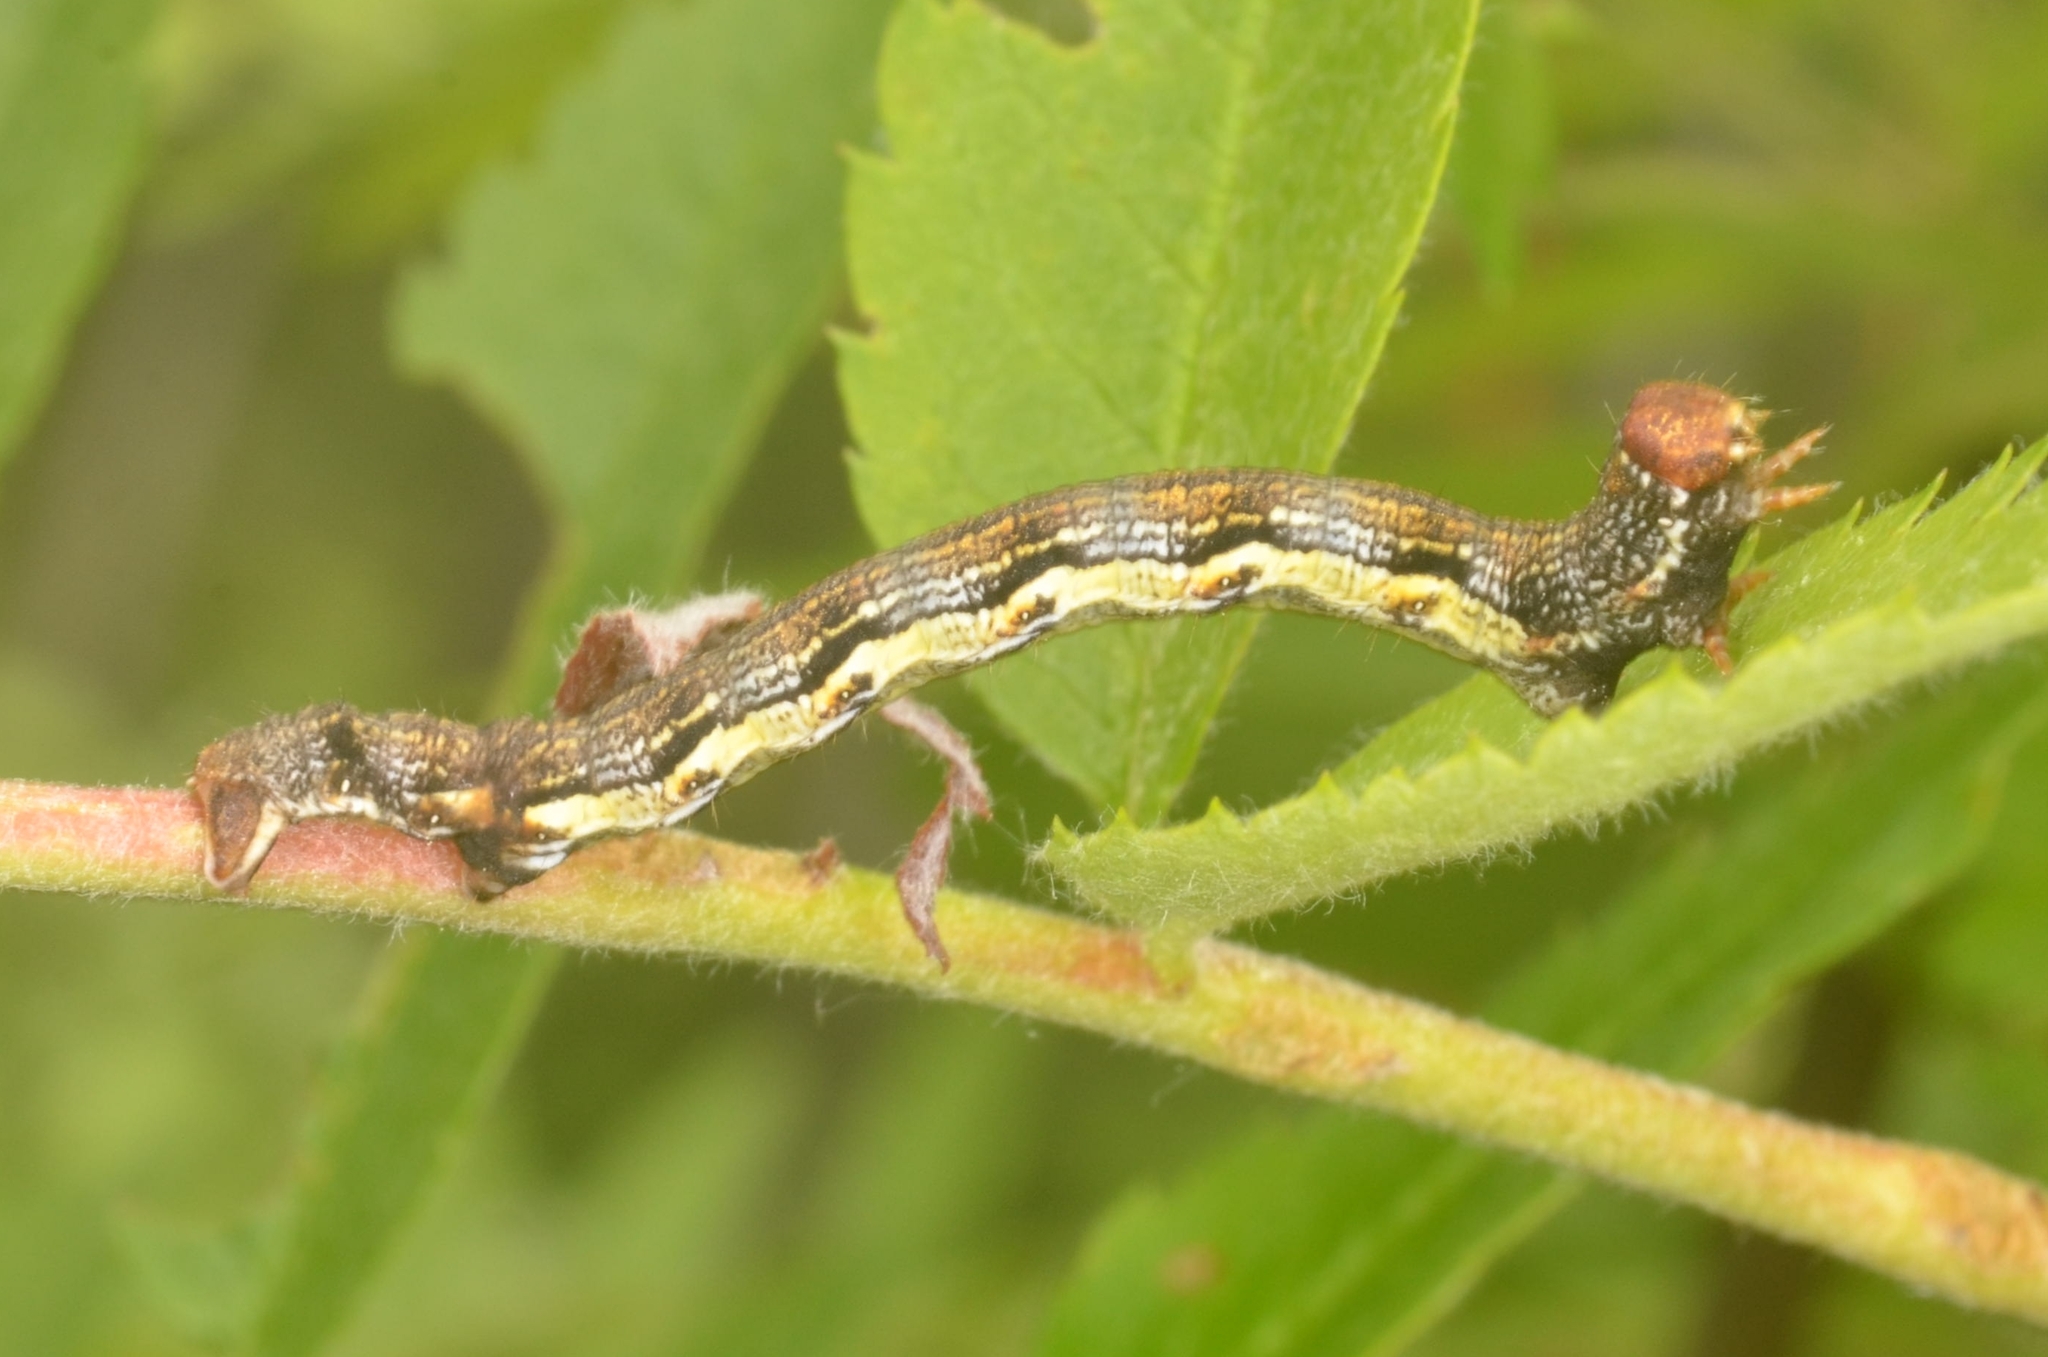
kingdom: Animalia
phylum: Arthropoda
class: Insecta
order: Lepidoptera
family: Geometridae
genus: Erannis
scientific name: Erannis defoliaria
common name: Mottled umber
